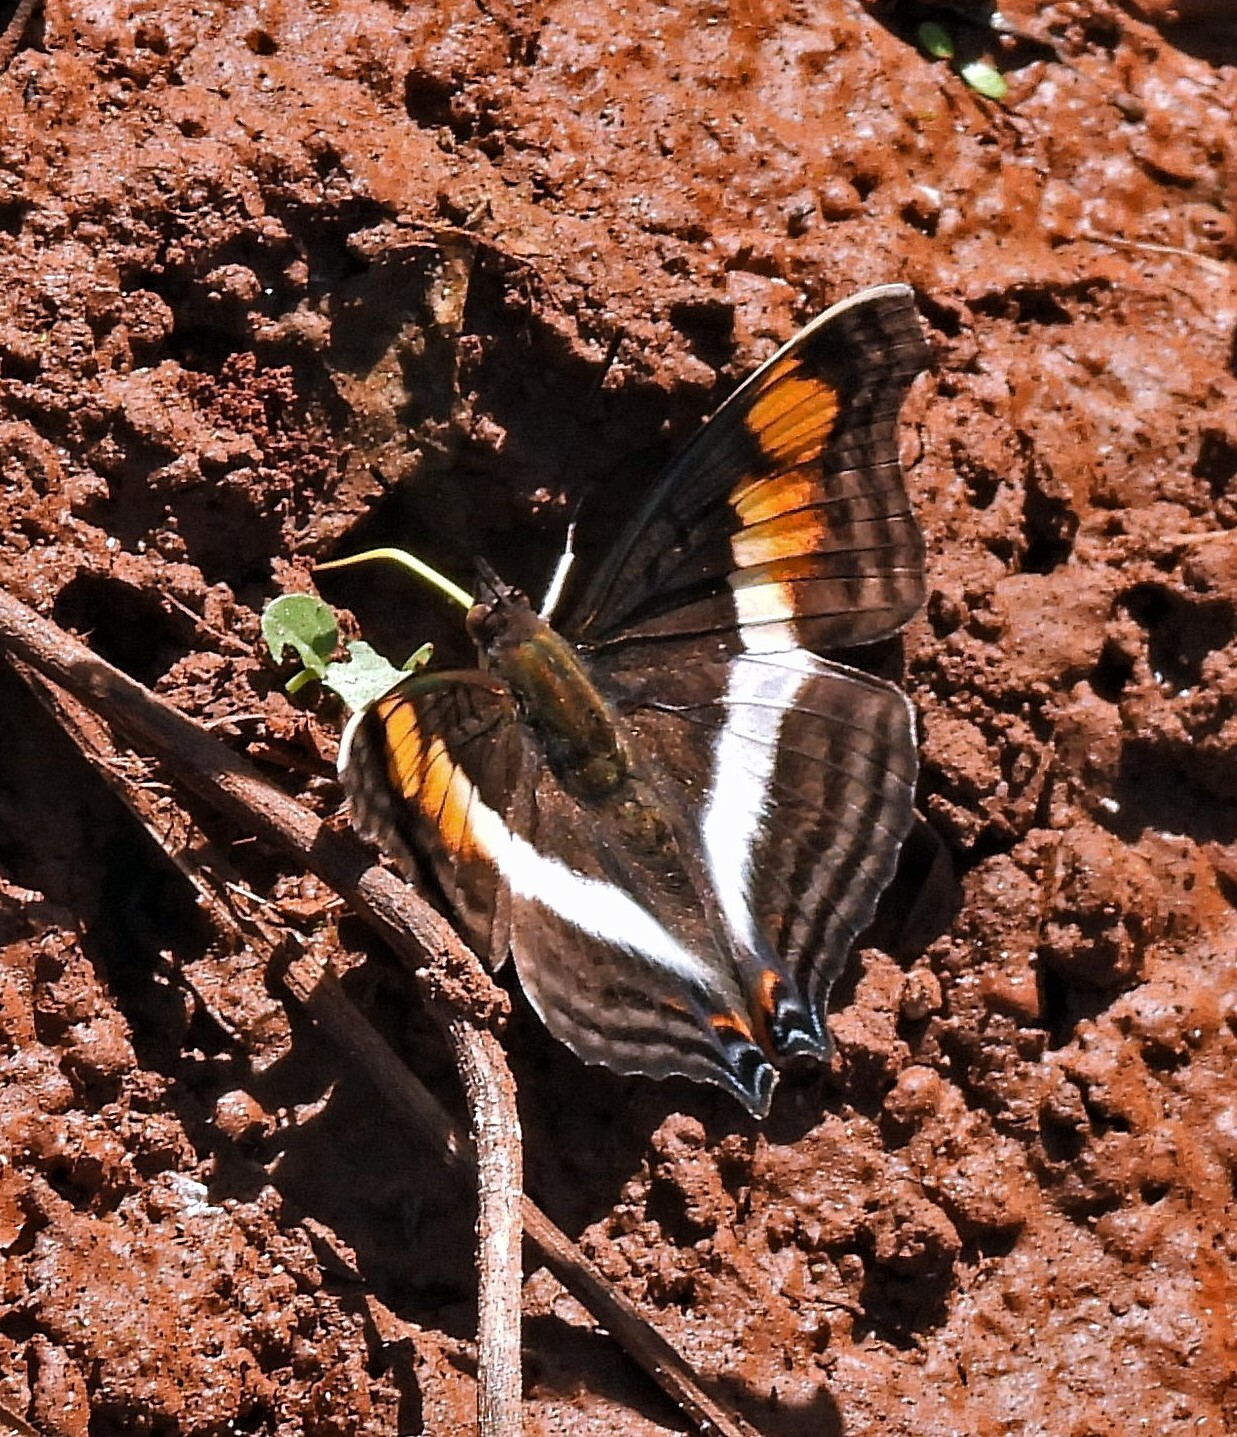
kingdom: Animalia
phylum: Arthropoda
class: Insecta
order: Lepidoptera
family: Nymphalidae
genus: Doxocopa
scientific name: Doxocopa linda
